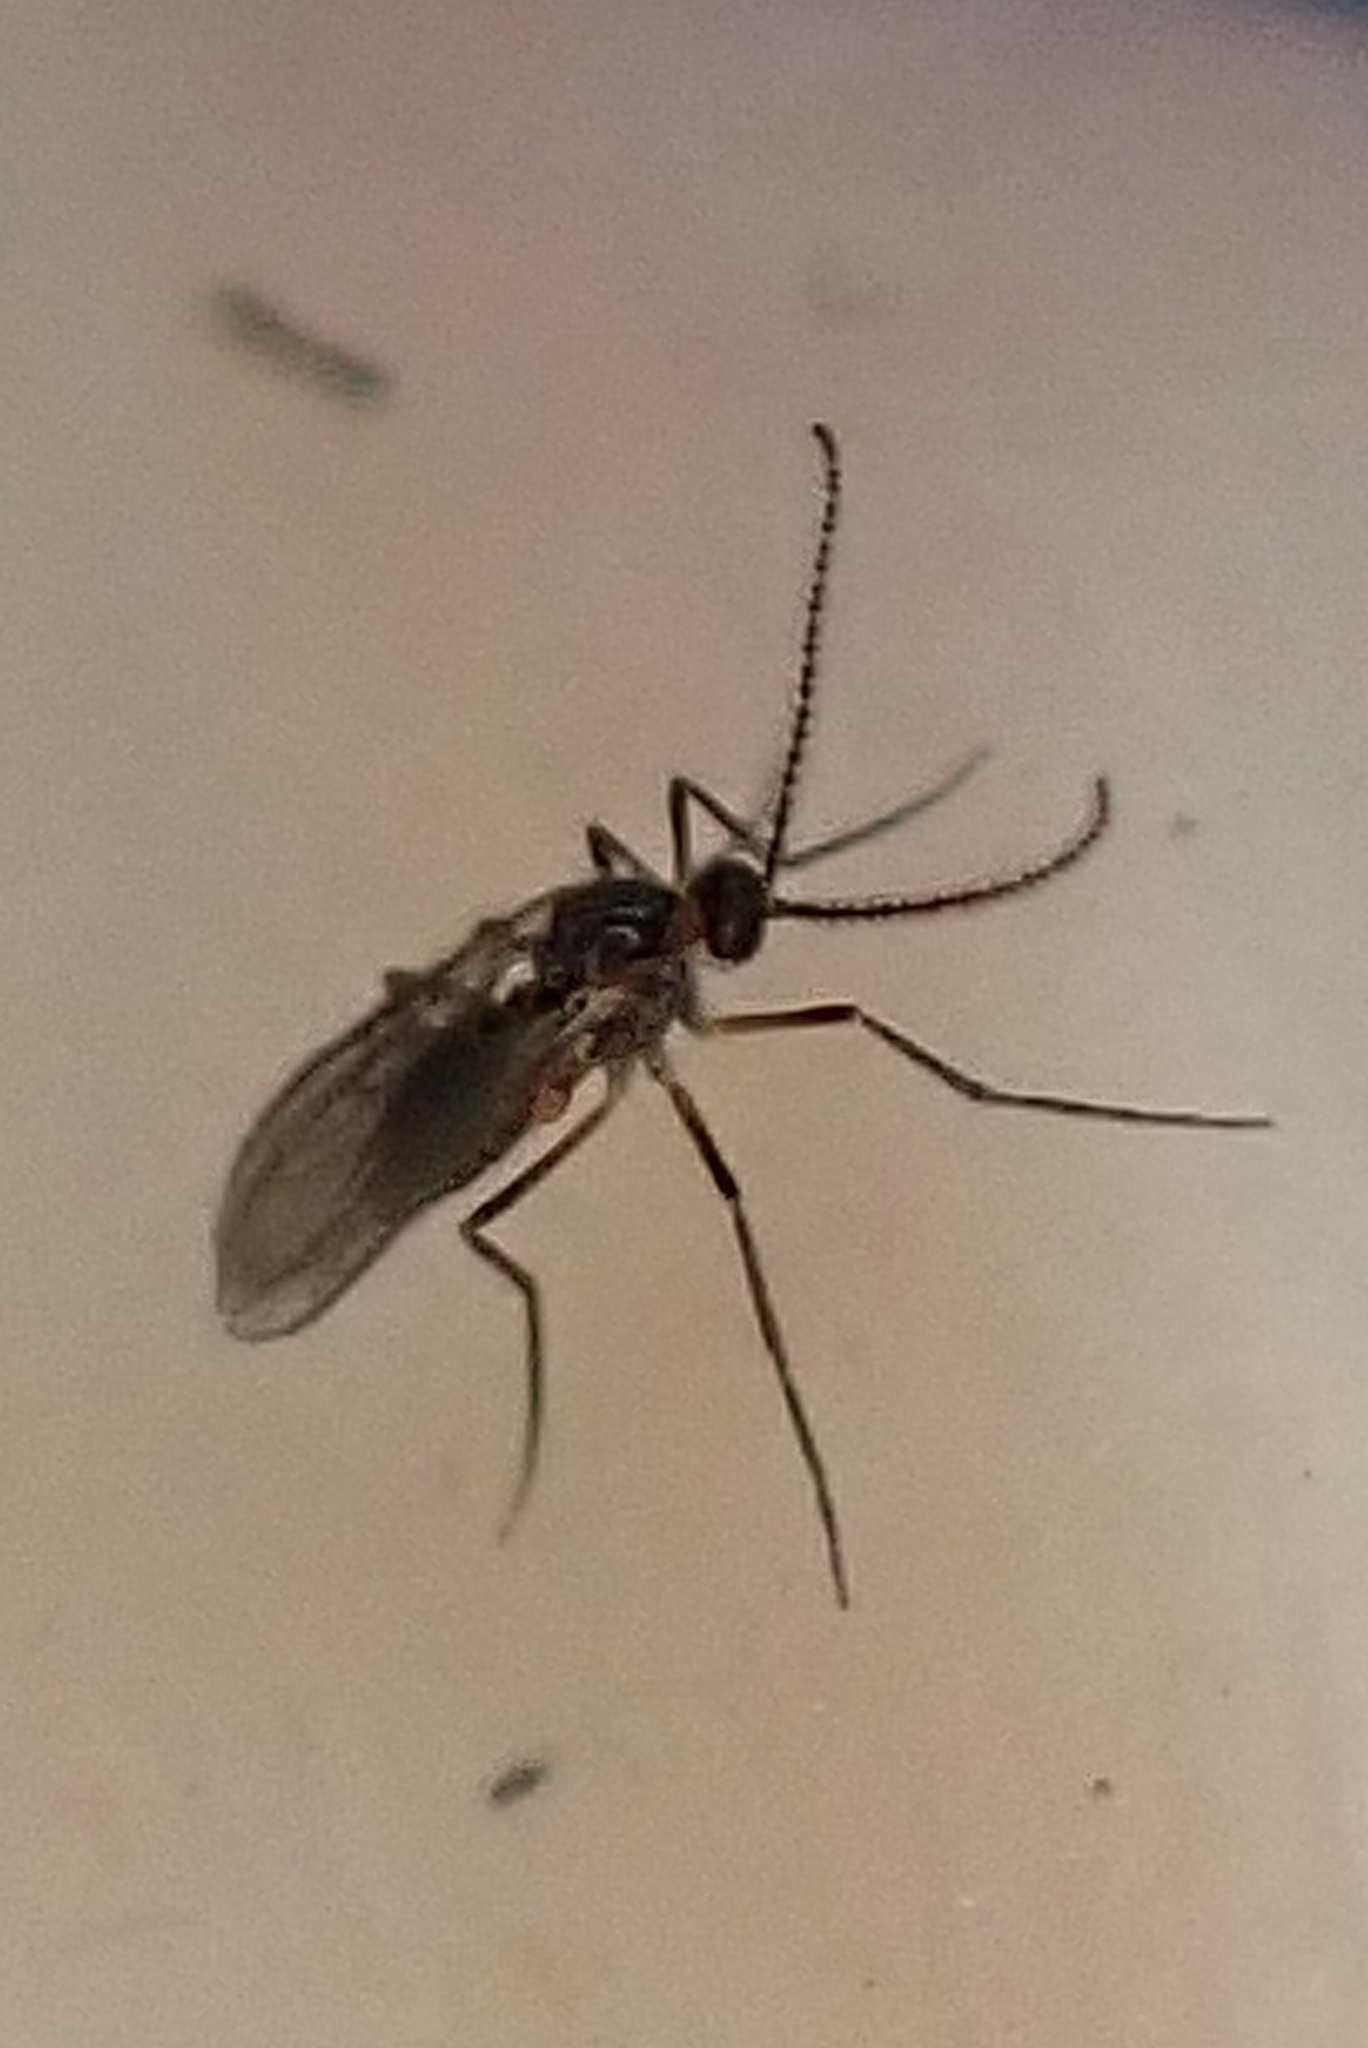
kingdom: Animalia
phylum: Arthropoda
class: Insecta
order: Diptera
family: Cecidomyiidae
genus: Contarinia
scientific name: Contarinia
